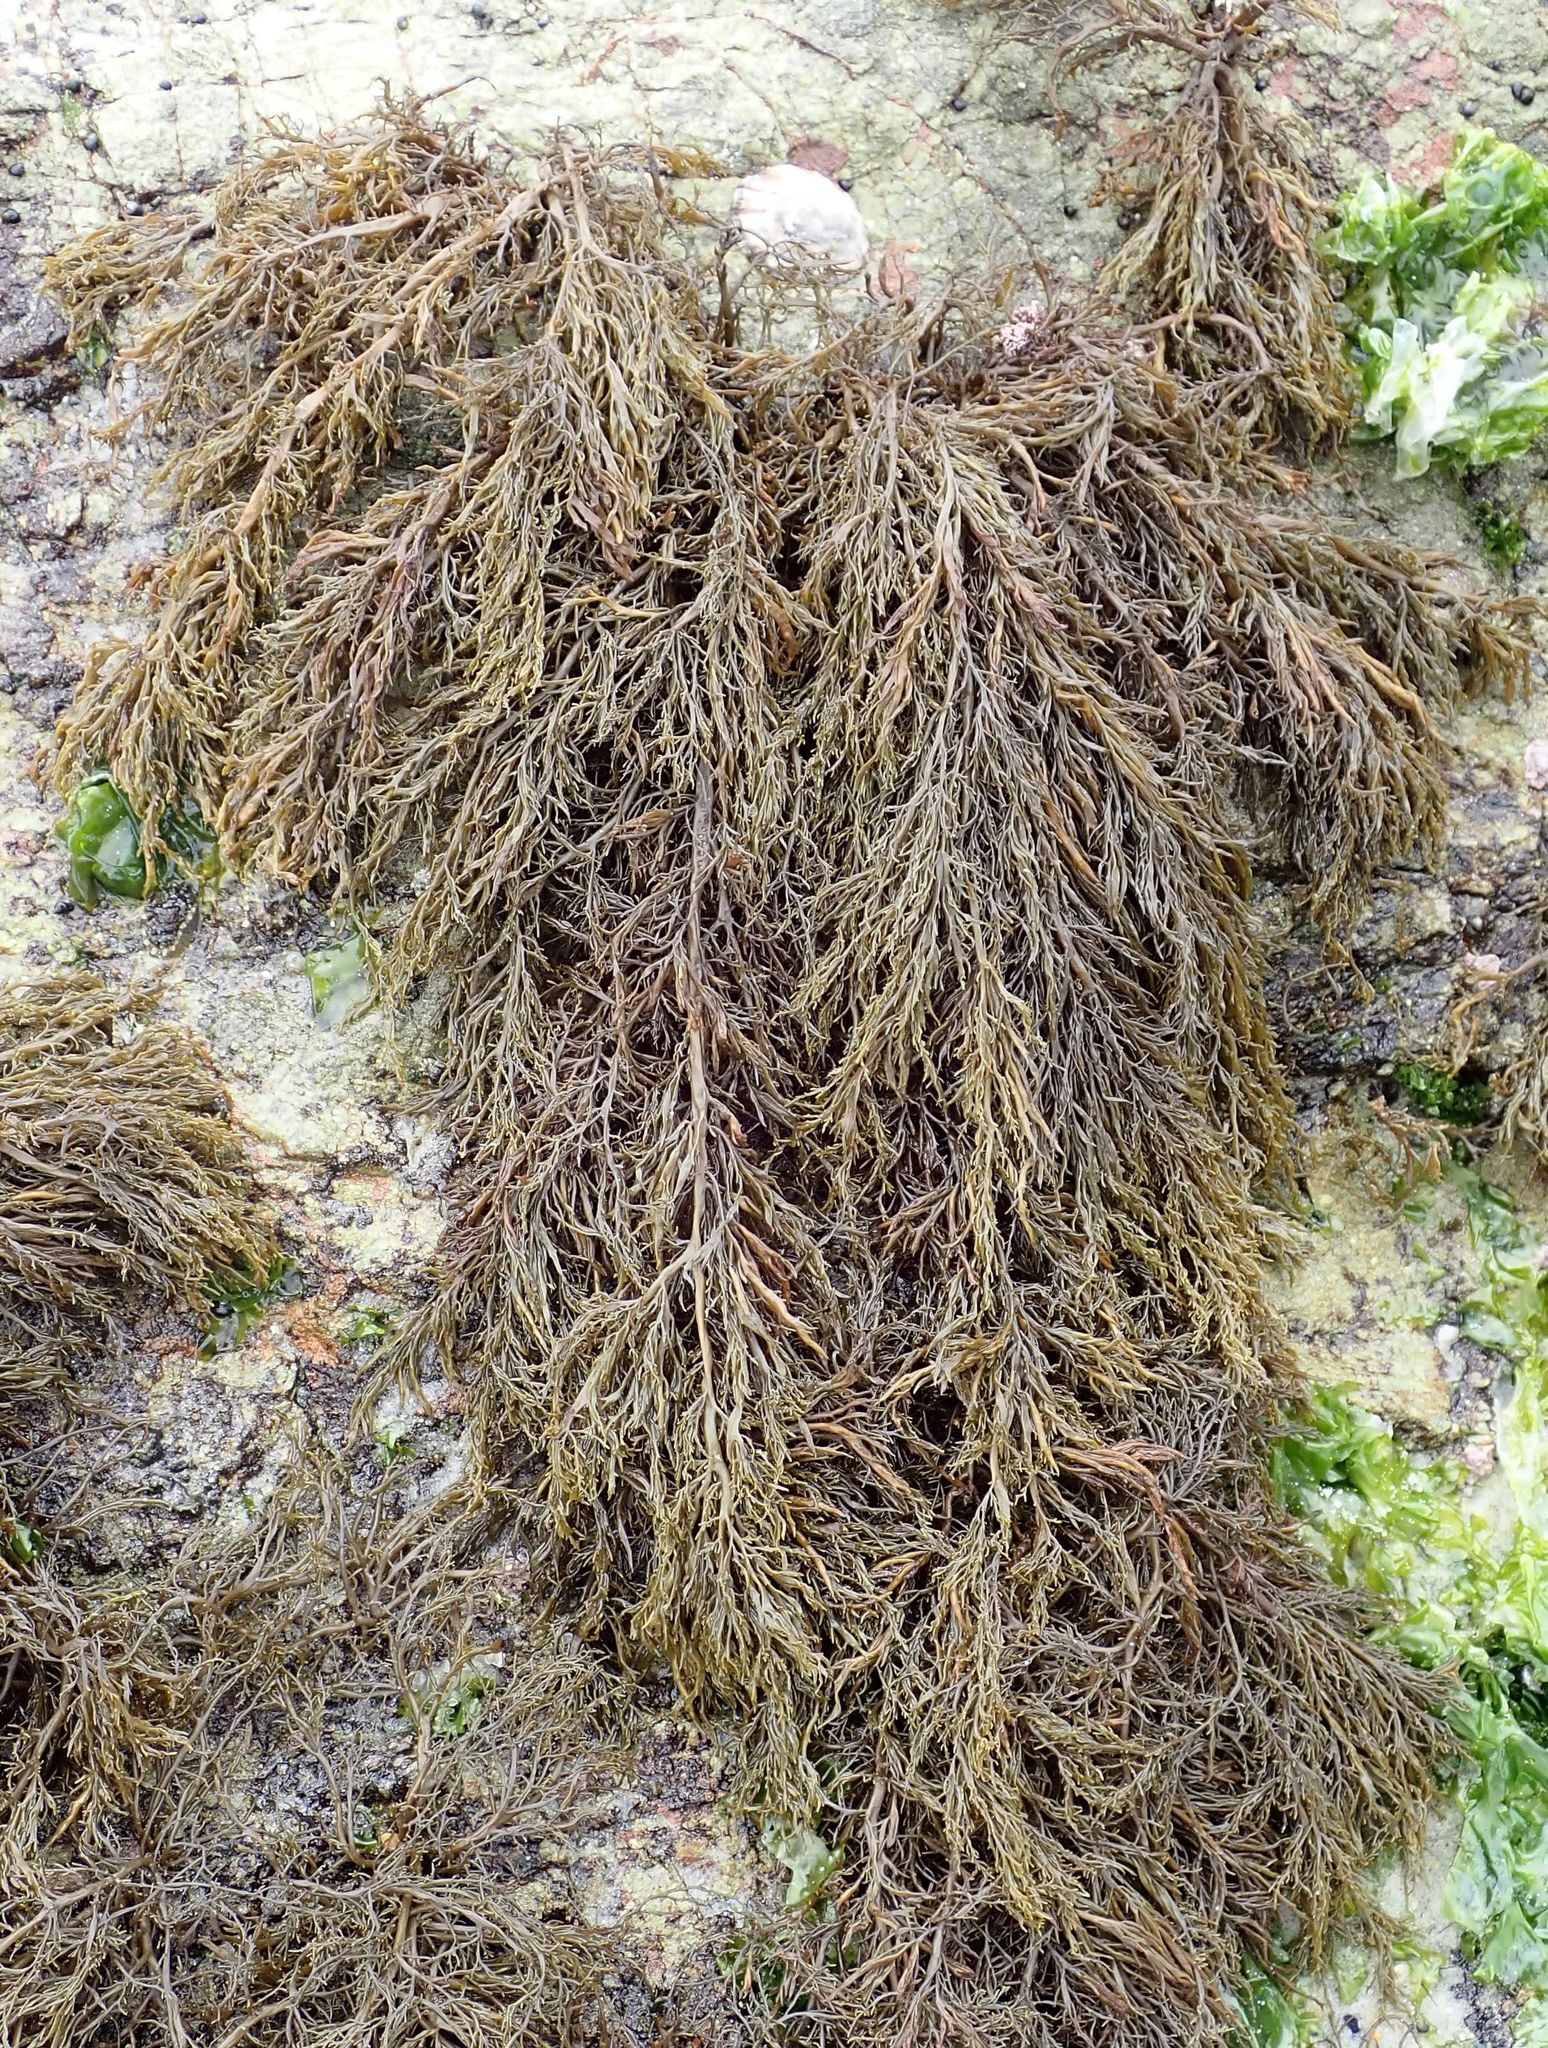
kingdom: Chromista
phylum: Ochrophyta
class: Phaeophyceae
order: Scytothamnales
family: Scytothamnaceae
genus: Scytothamnus
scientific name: Scytothamnus australis
